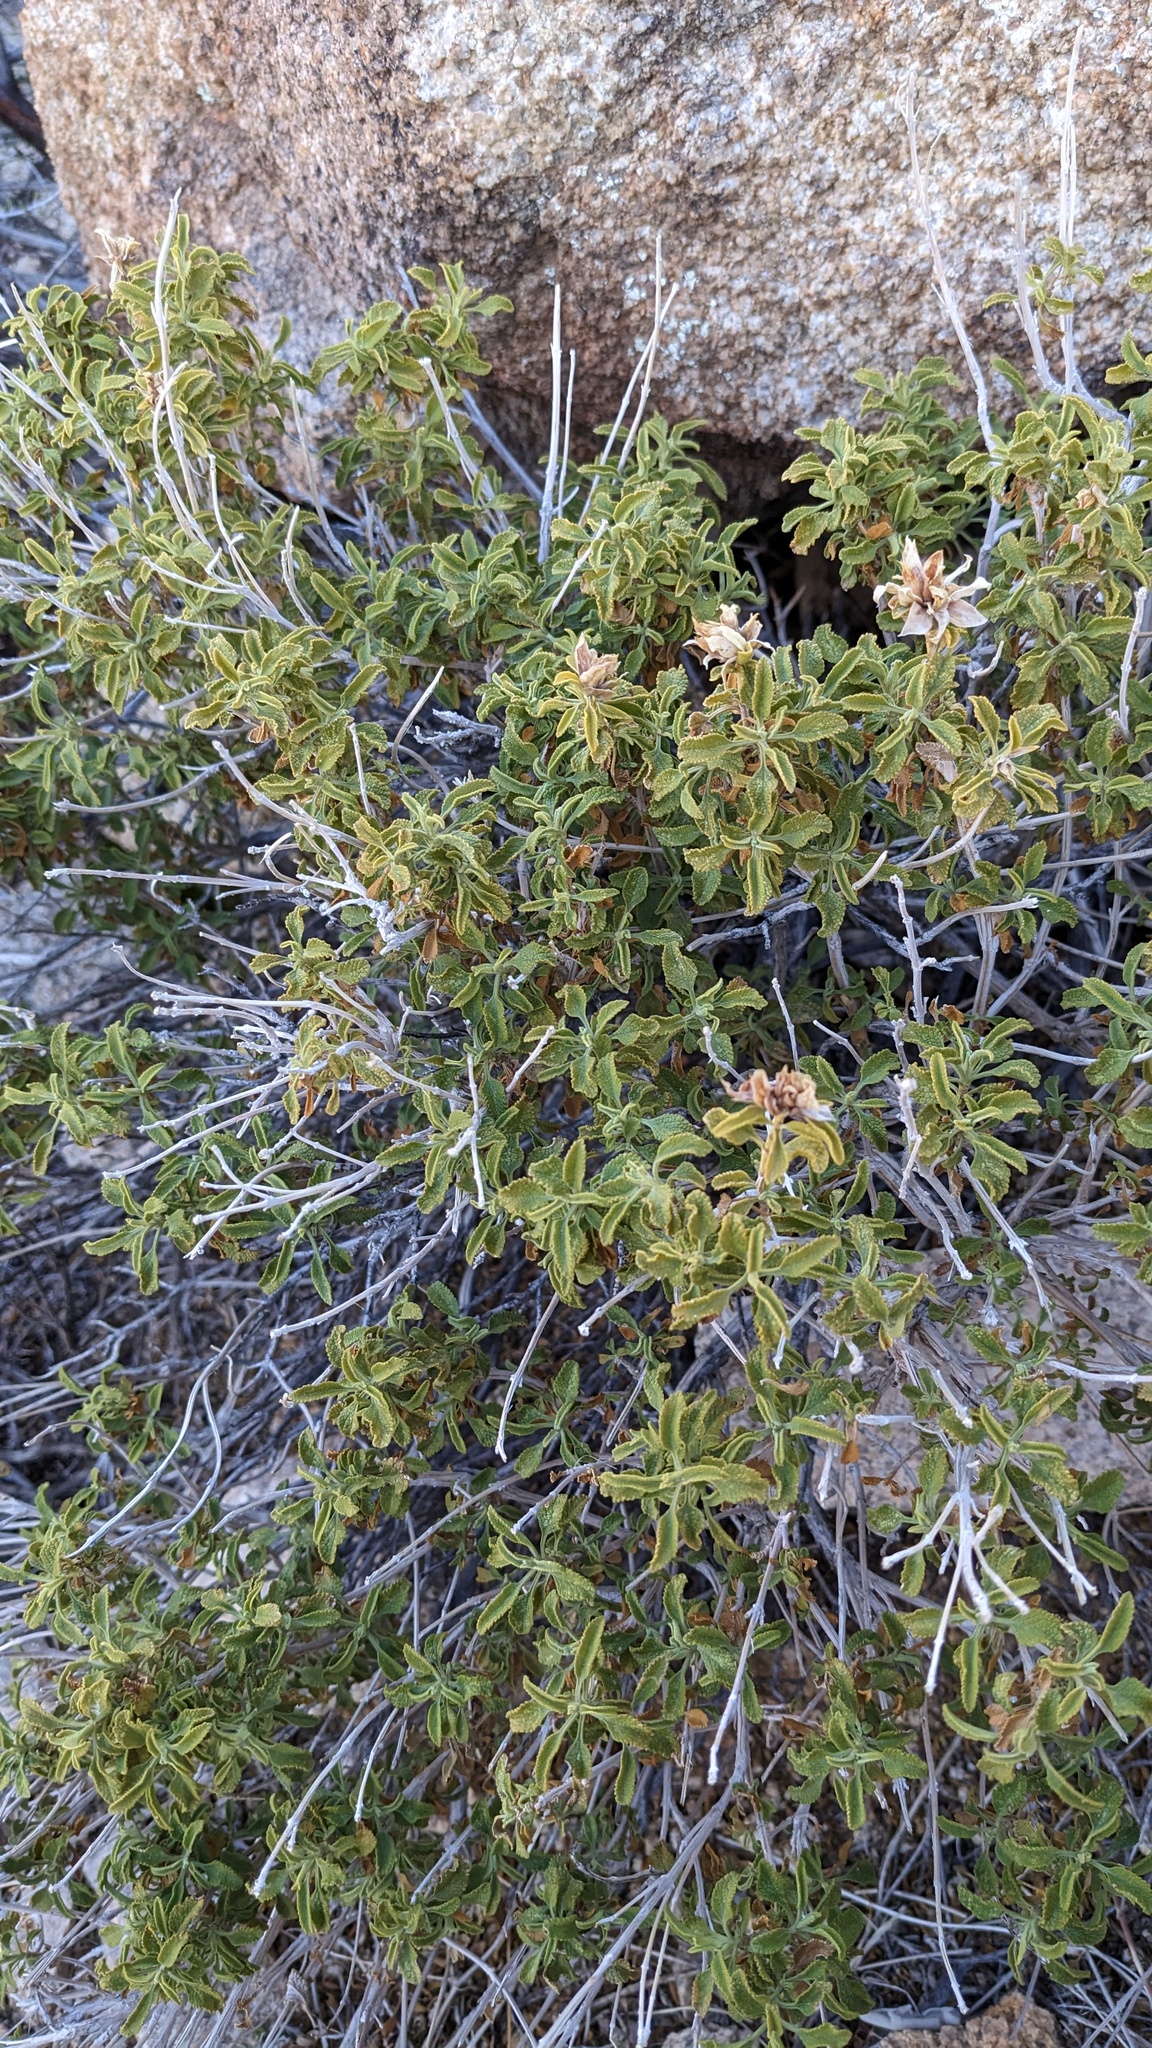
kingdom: Plantae
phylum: Tracheophyta
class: Magnoliopsida
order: Lamiales
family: Lamiaceae
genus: Salvia
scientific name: Salvia mohavensis
